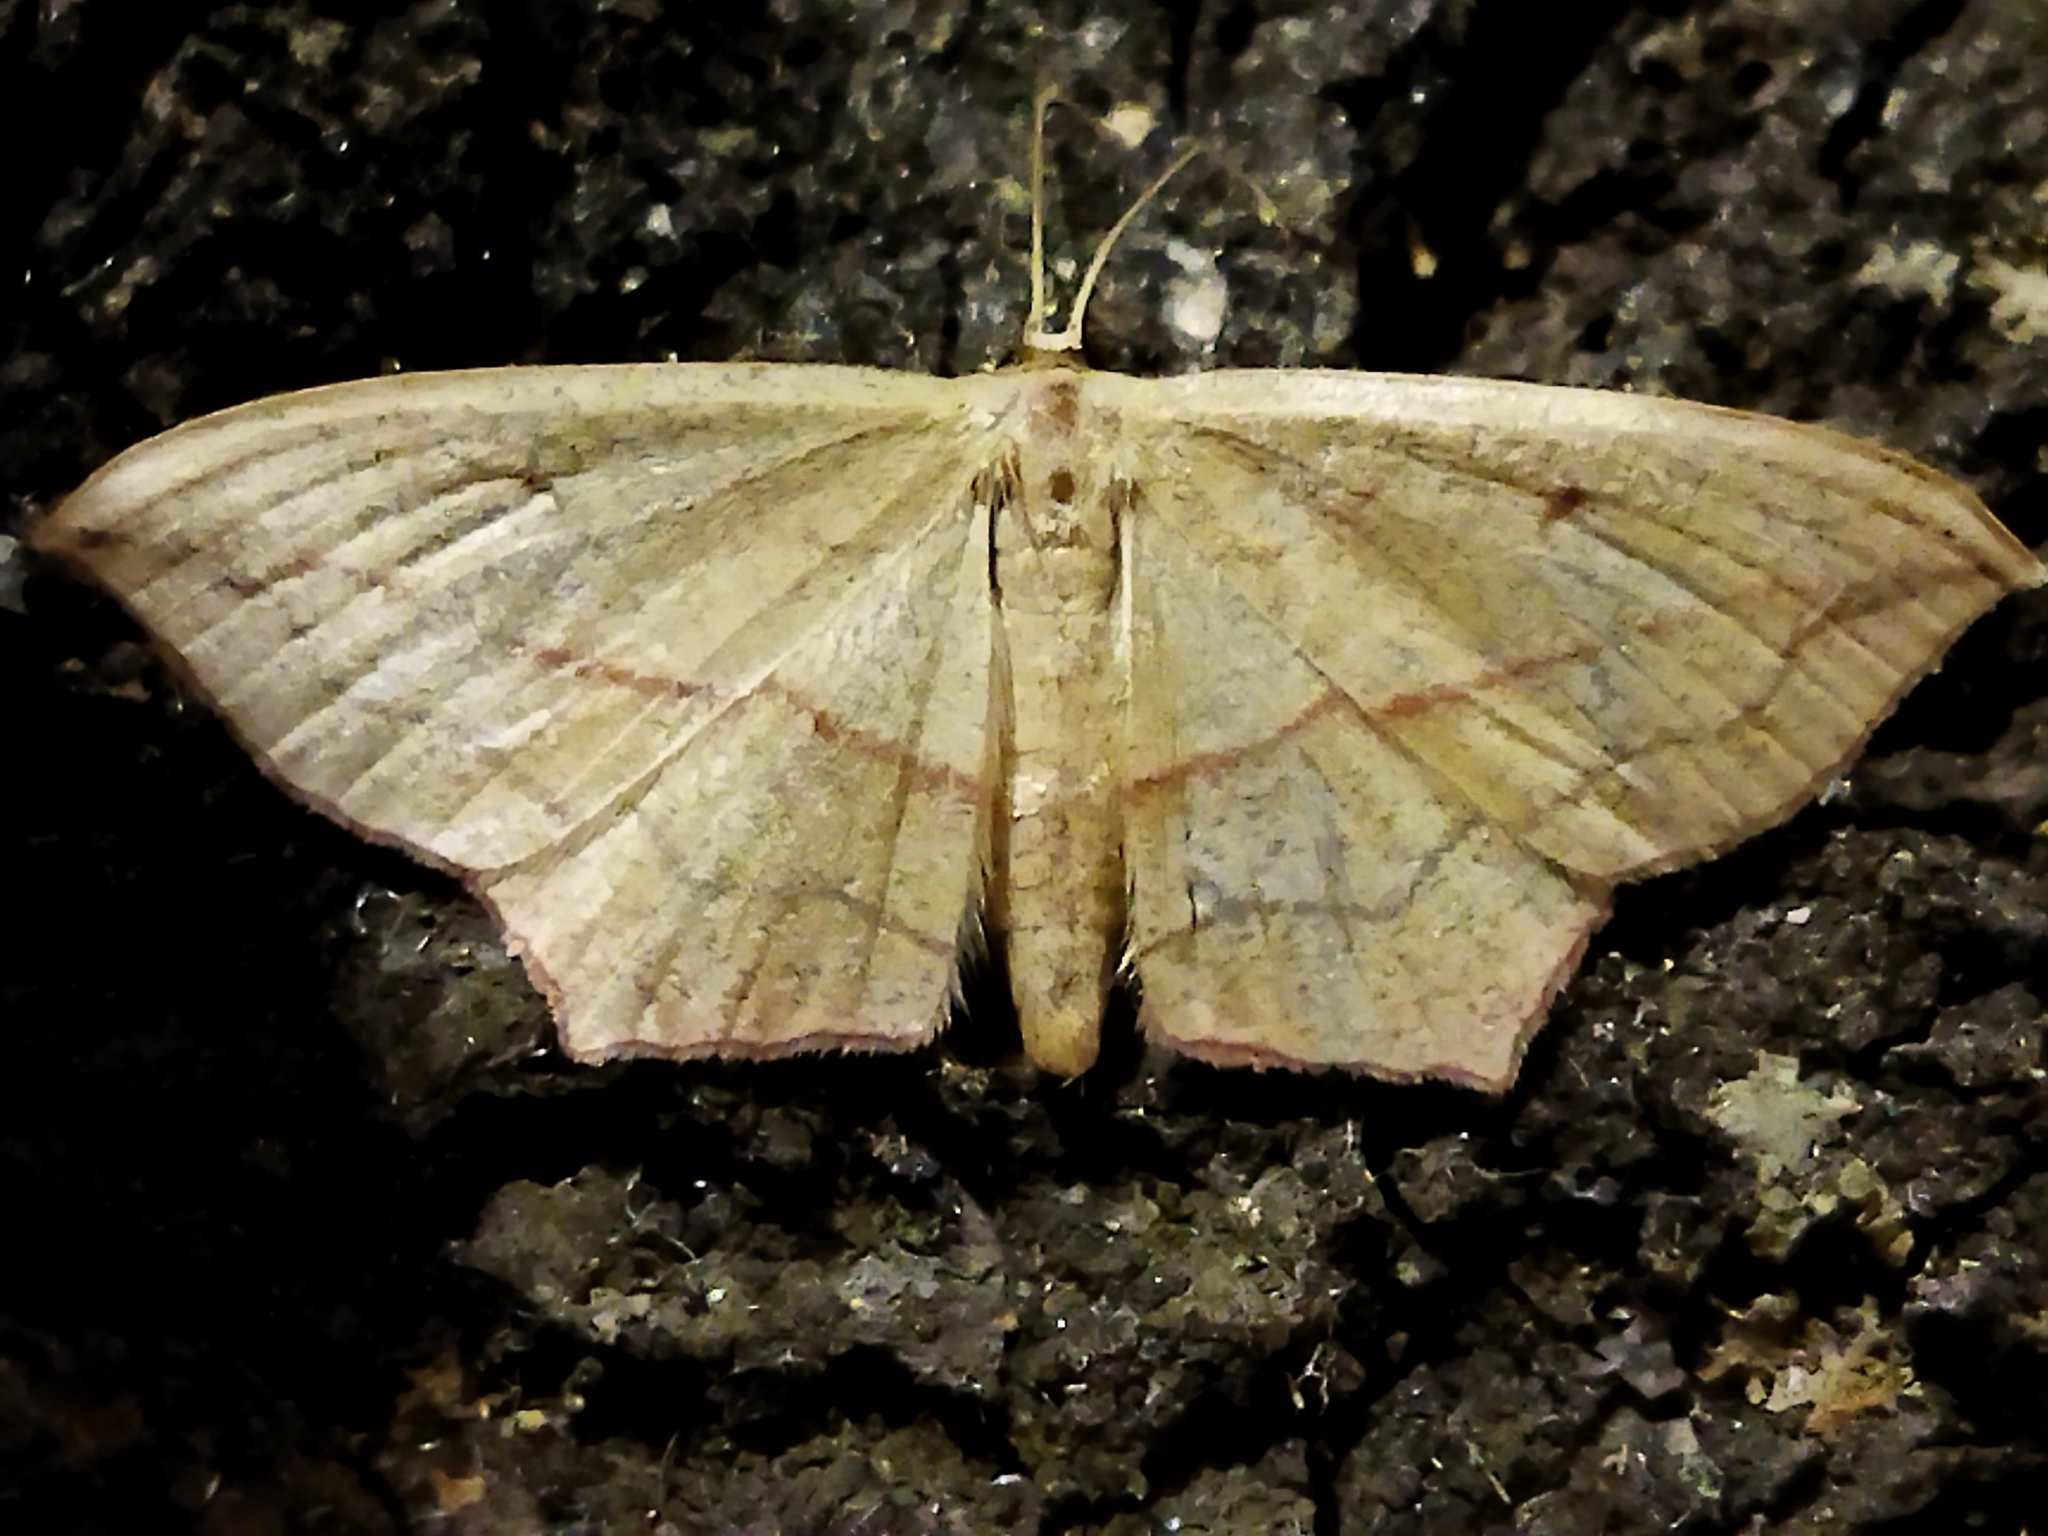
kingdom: Animalia
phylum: Arthropoda
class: Insecta
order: Lepidoptera
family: Geometridae
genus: Timandra
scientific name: Timandra comae
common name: Blood-vein
